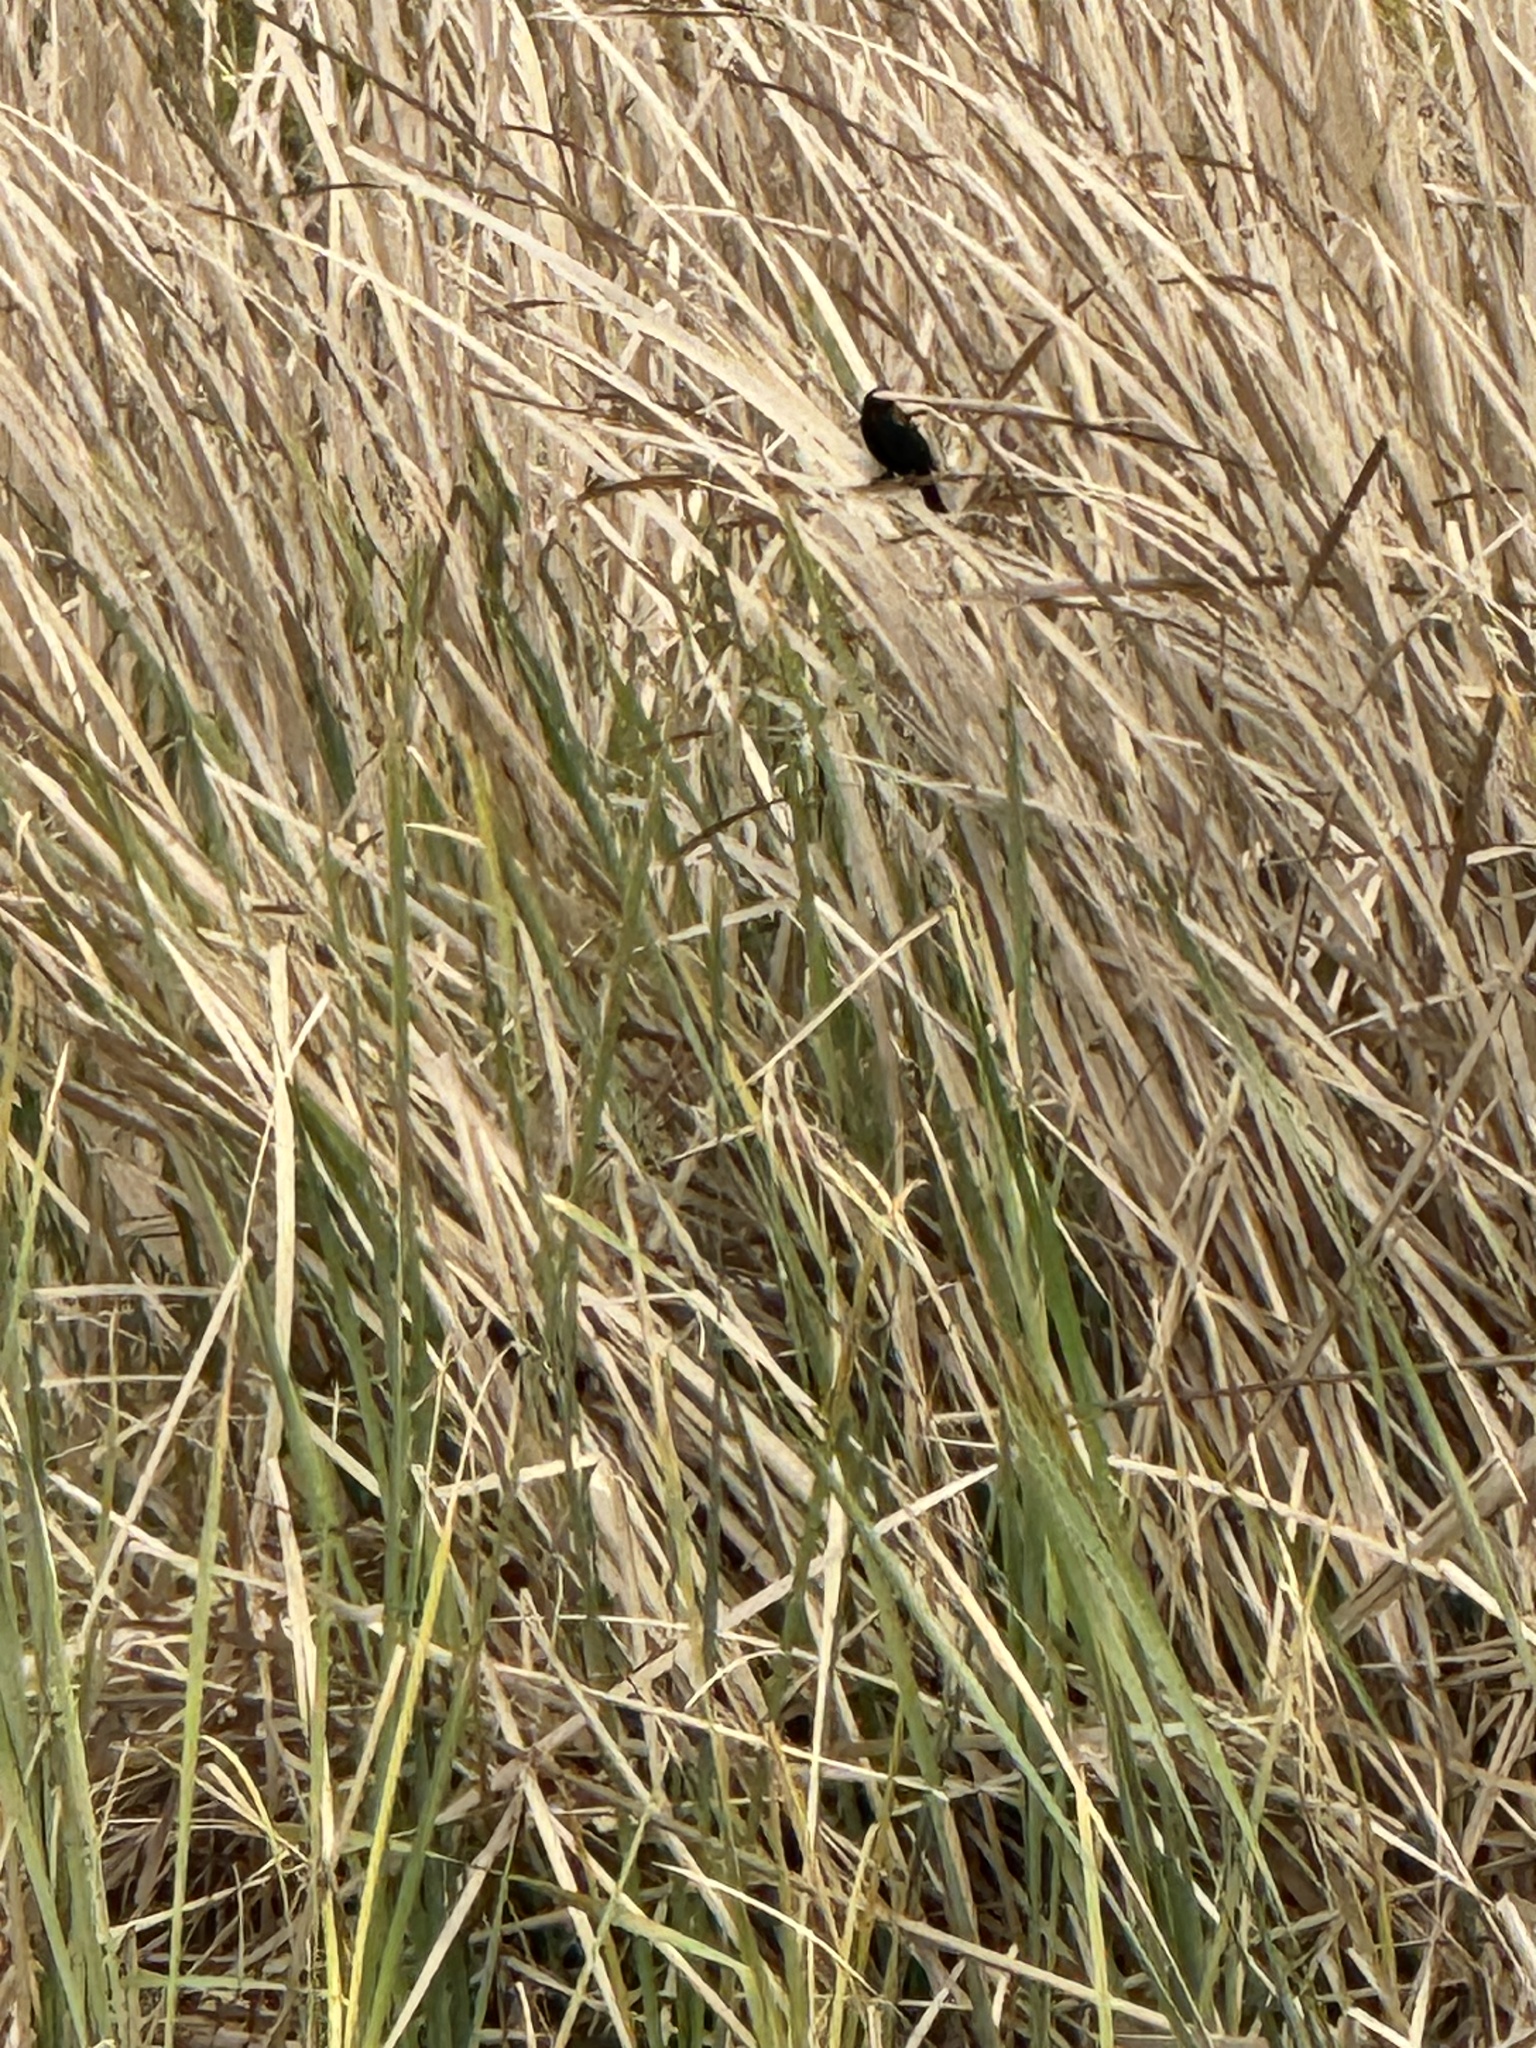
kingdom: Animalia
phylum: Chordata
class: Aves
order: Passeriformes
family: Icteridae
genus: Agelaius
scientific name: Agelaius phoeniceus
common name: Red-winged blackbird
